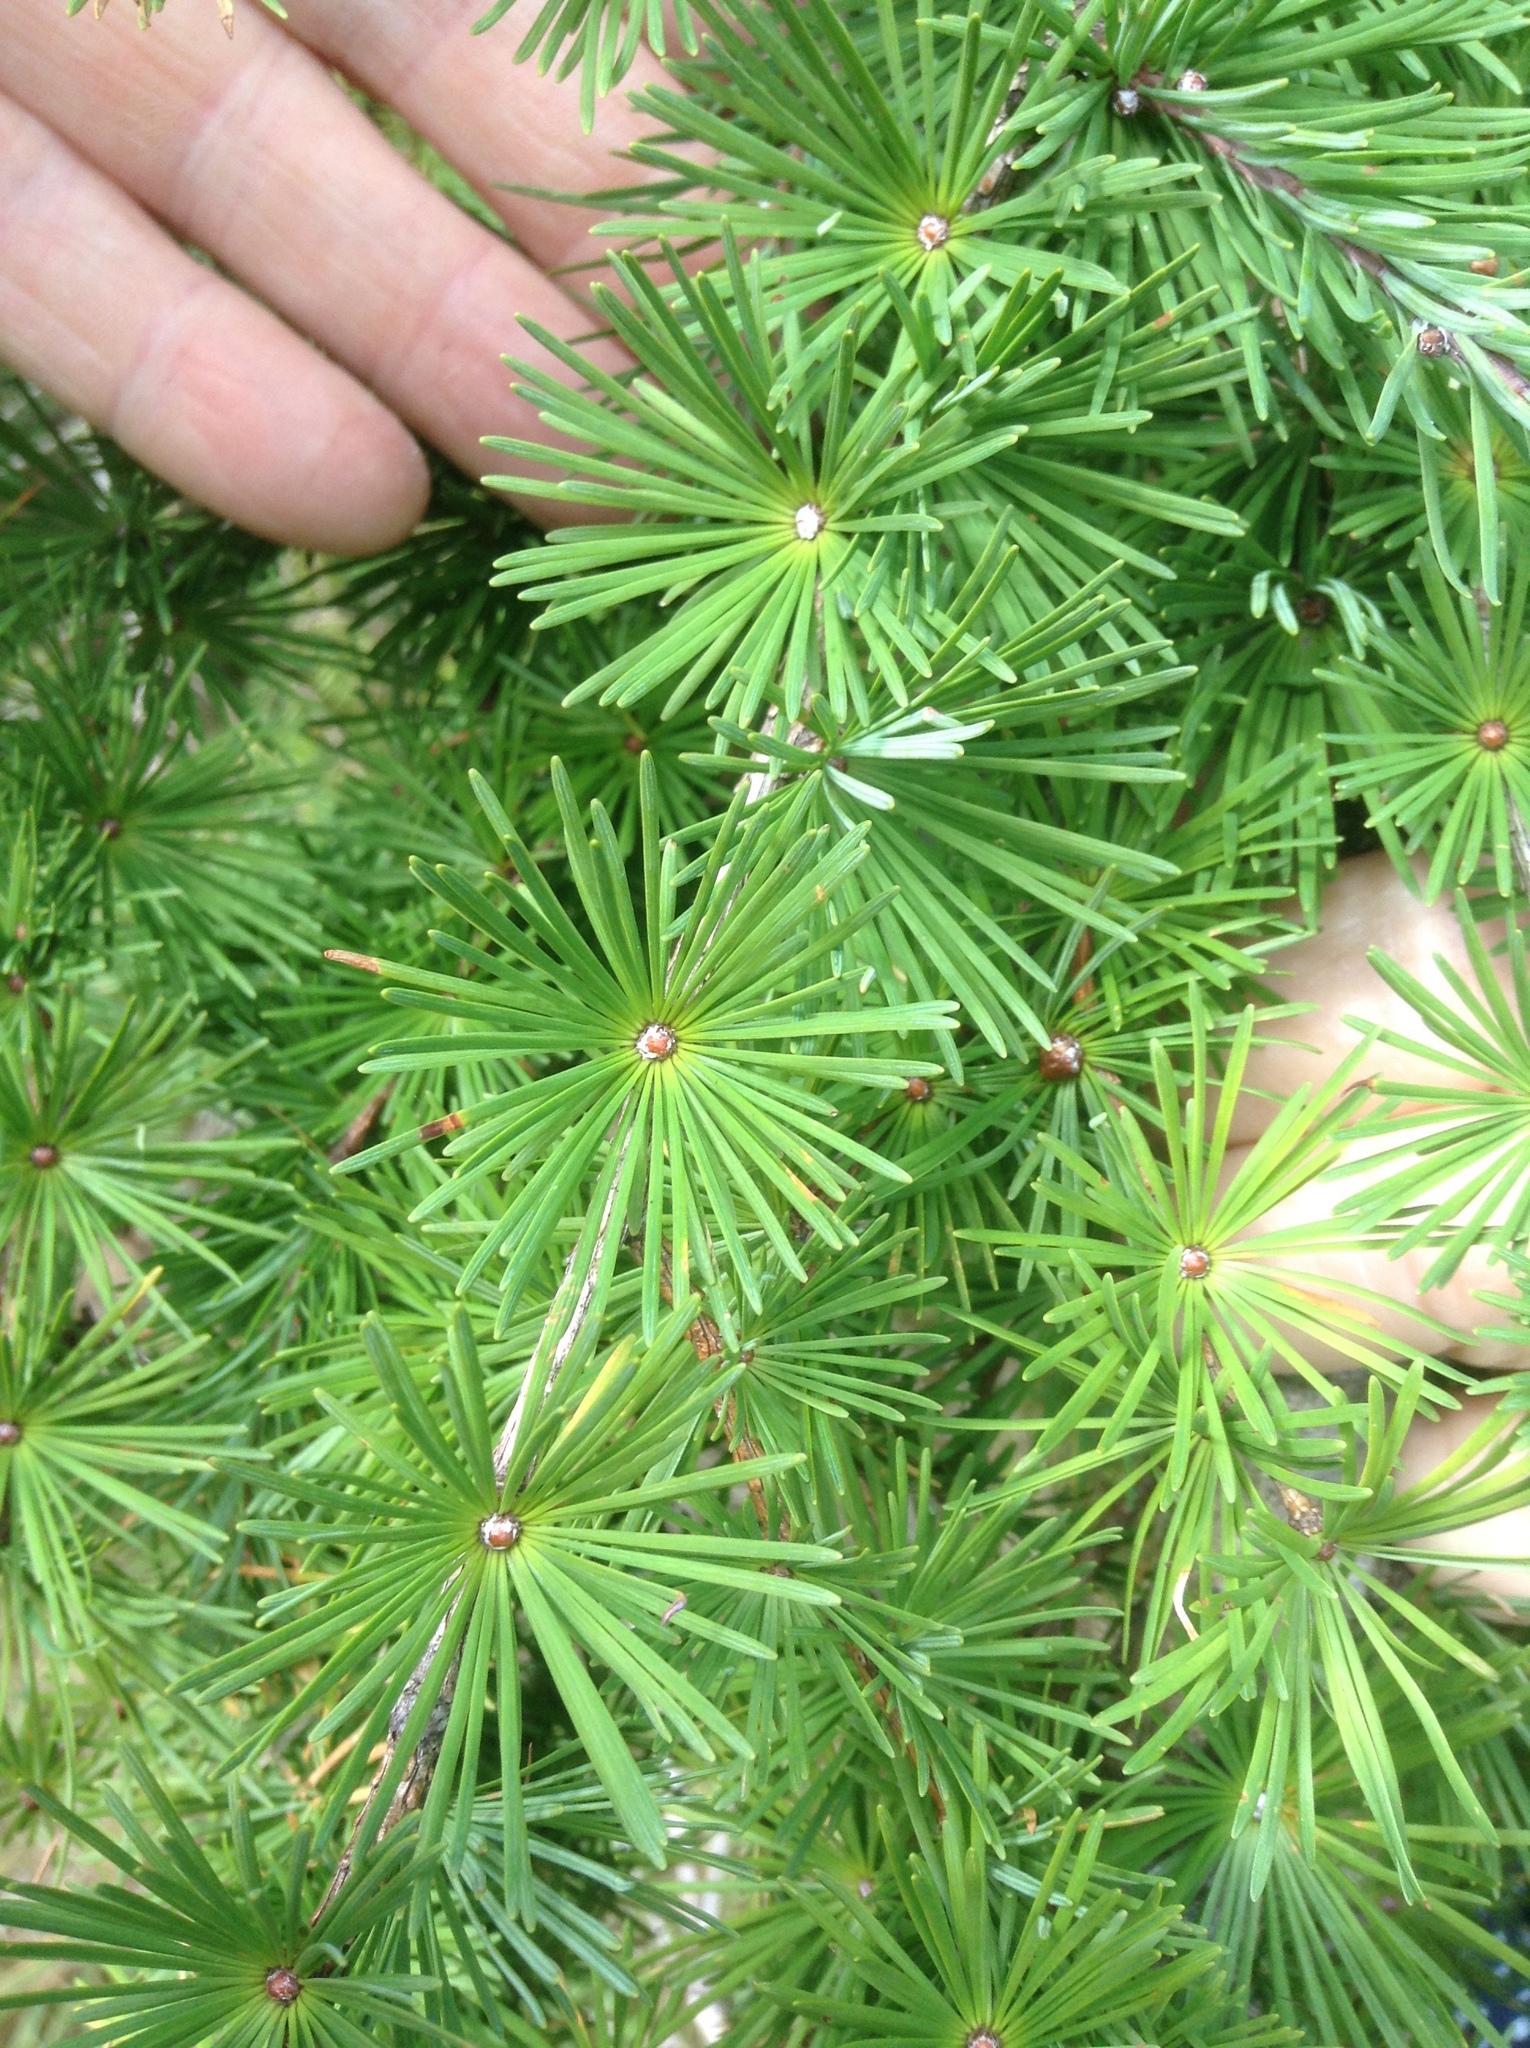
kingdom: Plantae
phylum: Tracheophyta
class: Pinopsida
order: Pinales
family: Pinaceae
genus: Larix
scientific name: Larix decidua
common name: European larch
